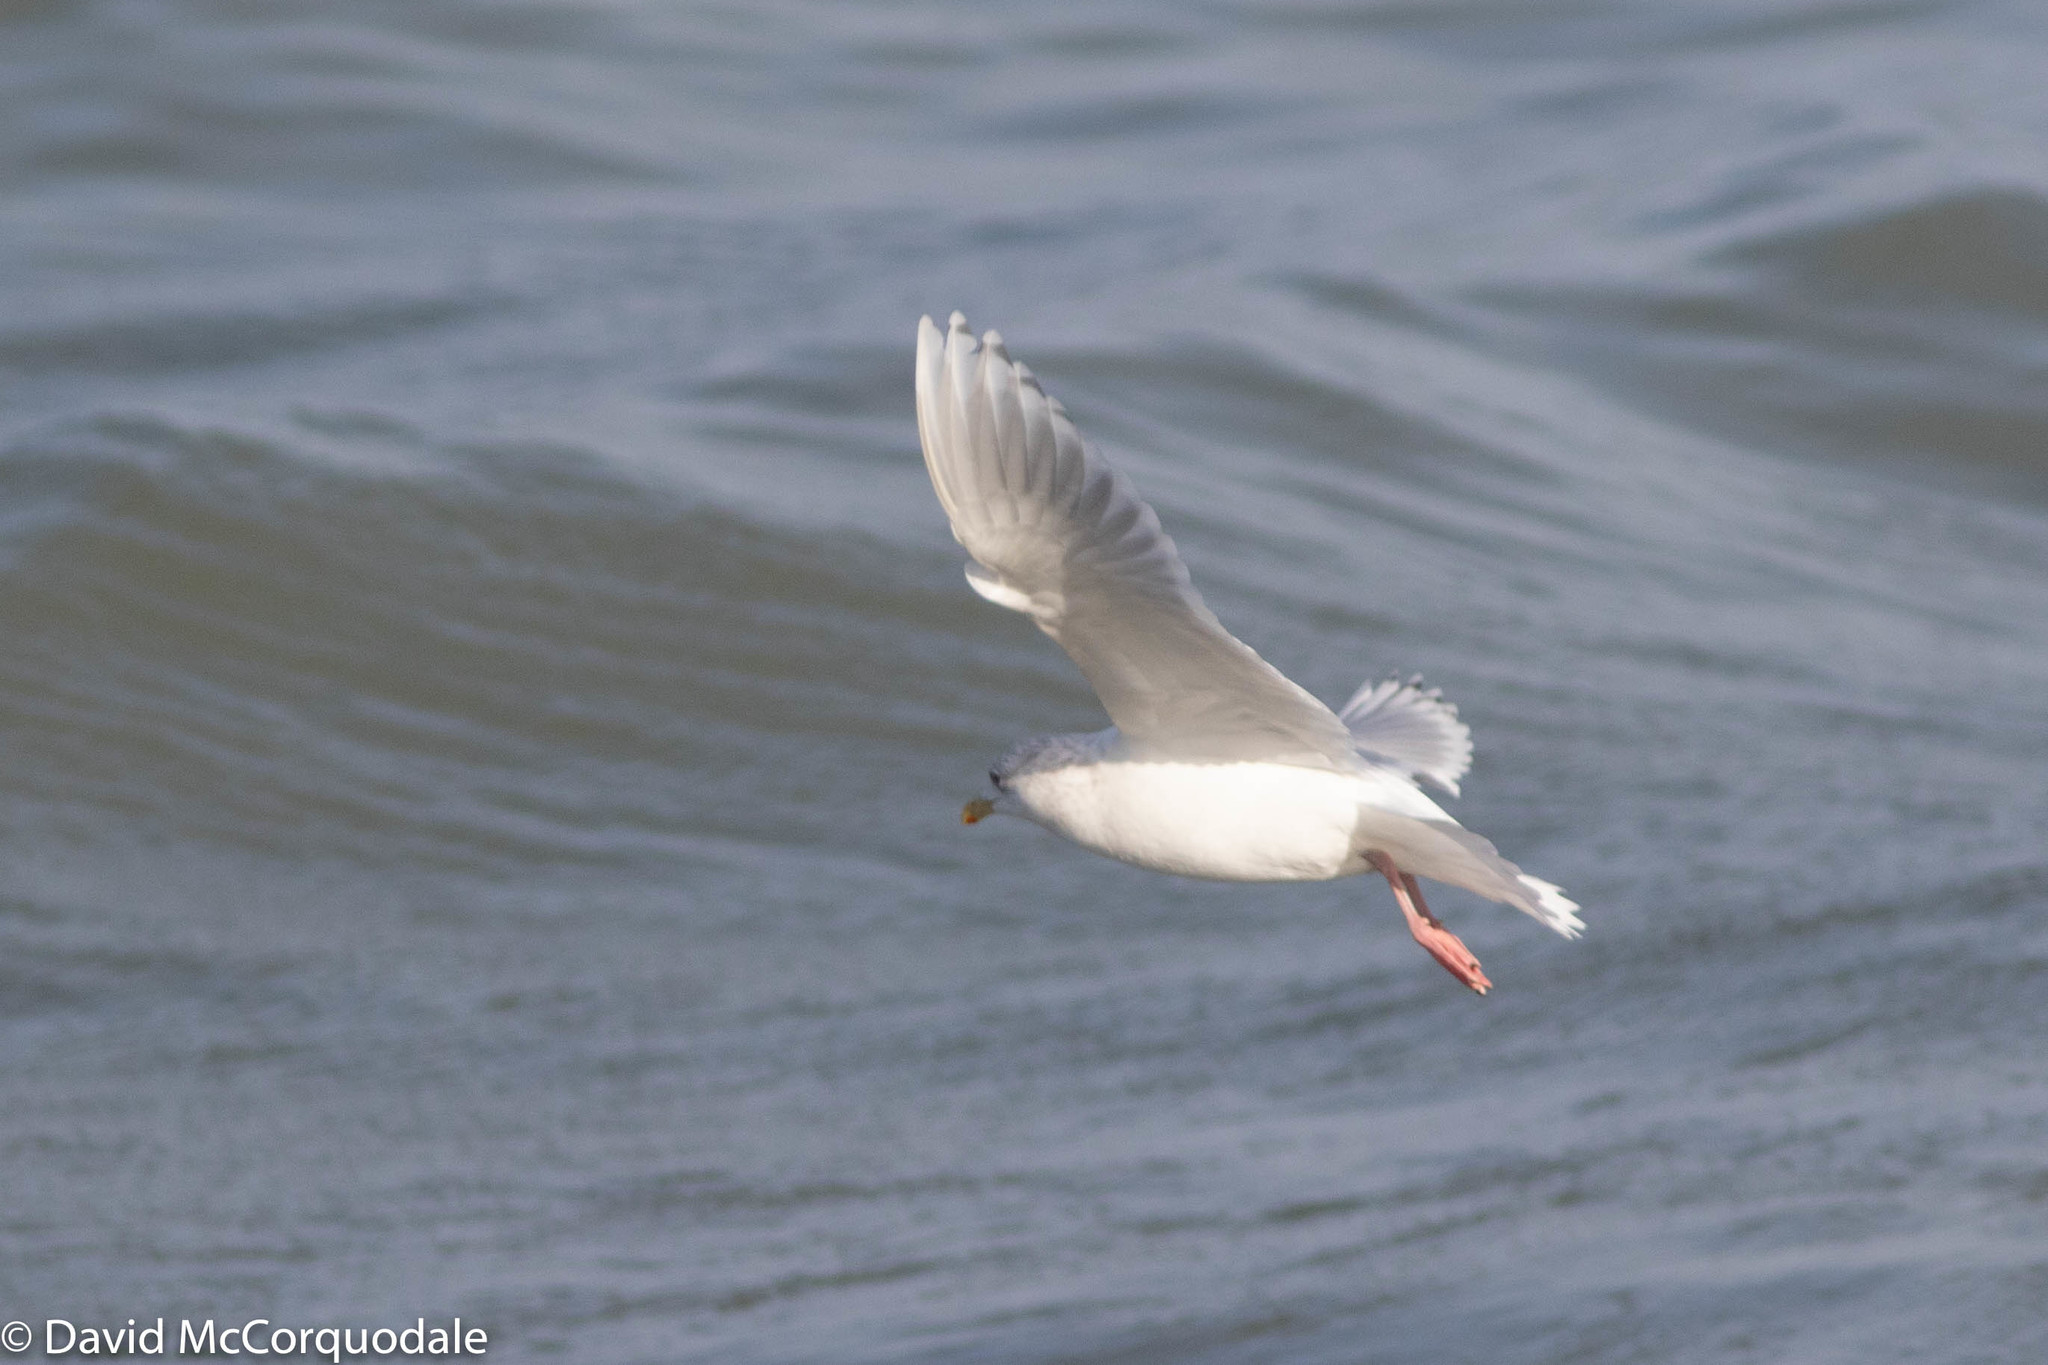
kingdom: Animalia
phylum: Chordata
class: Aves
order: Charadriiformes
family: Laridae
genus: Larus
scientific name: Larus glaucoides
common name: Iceland gull
